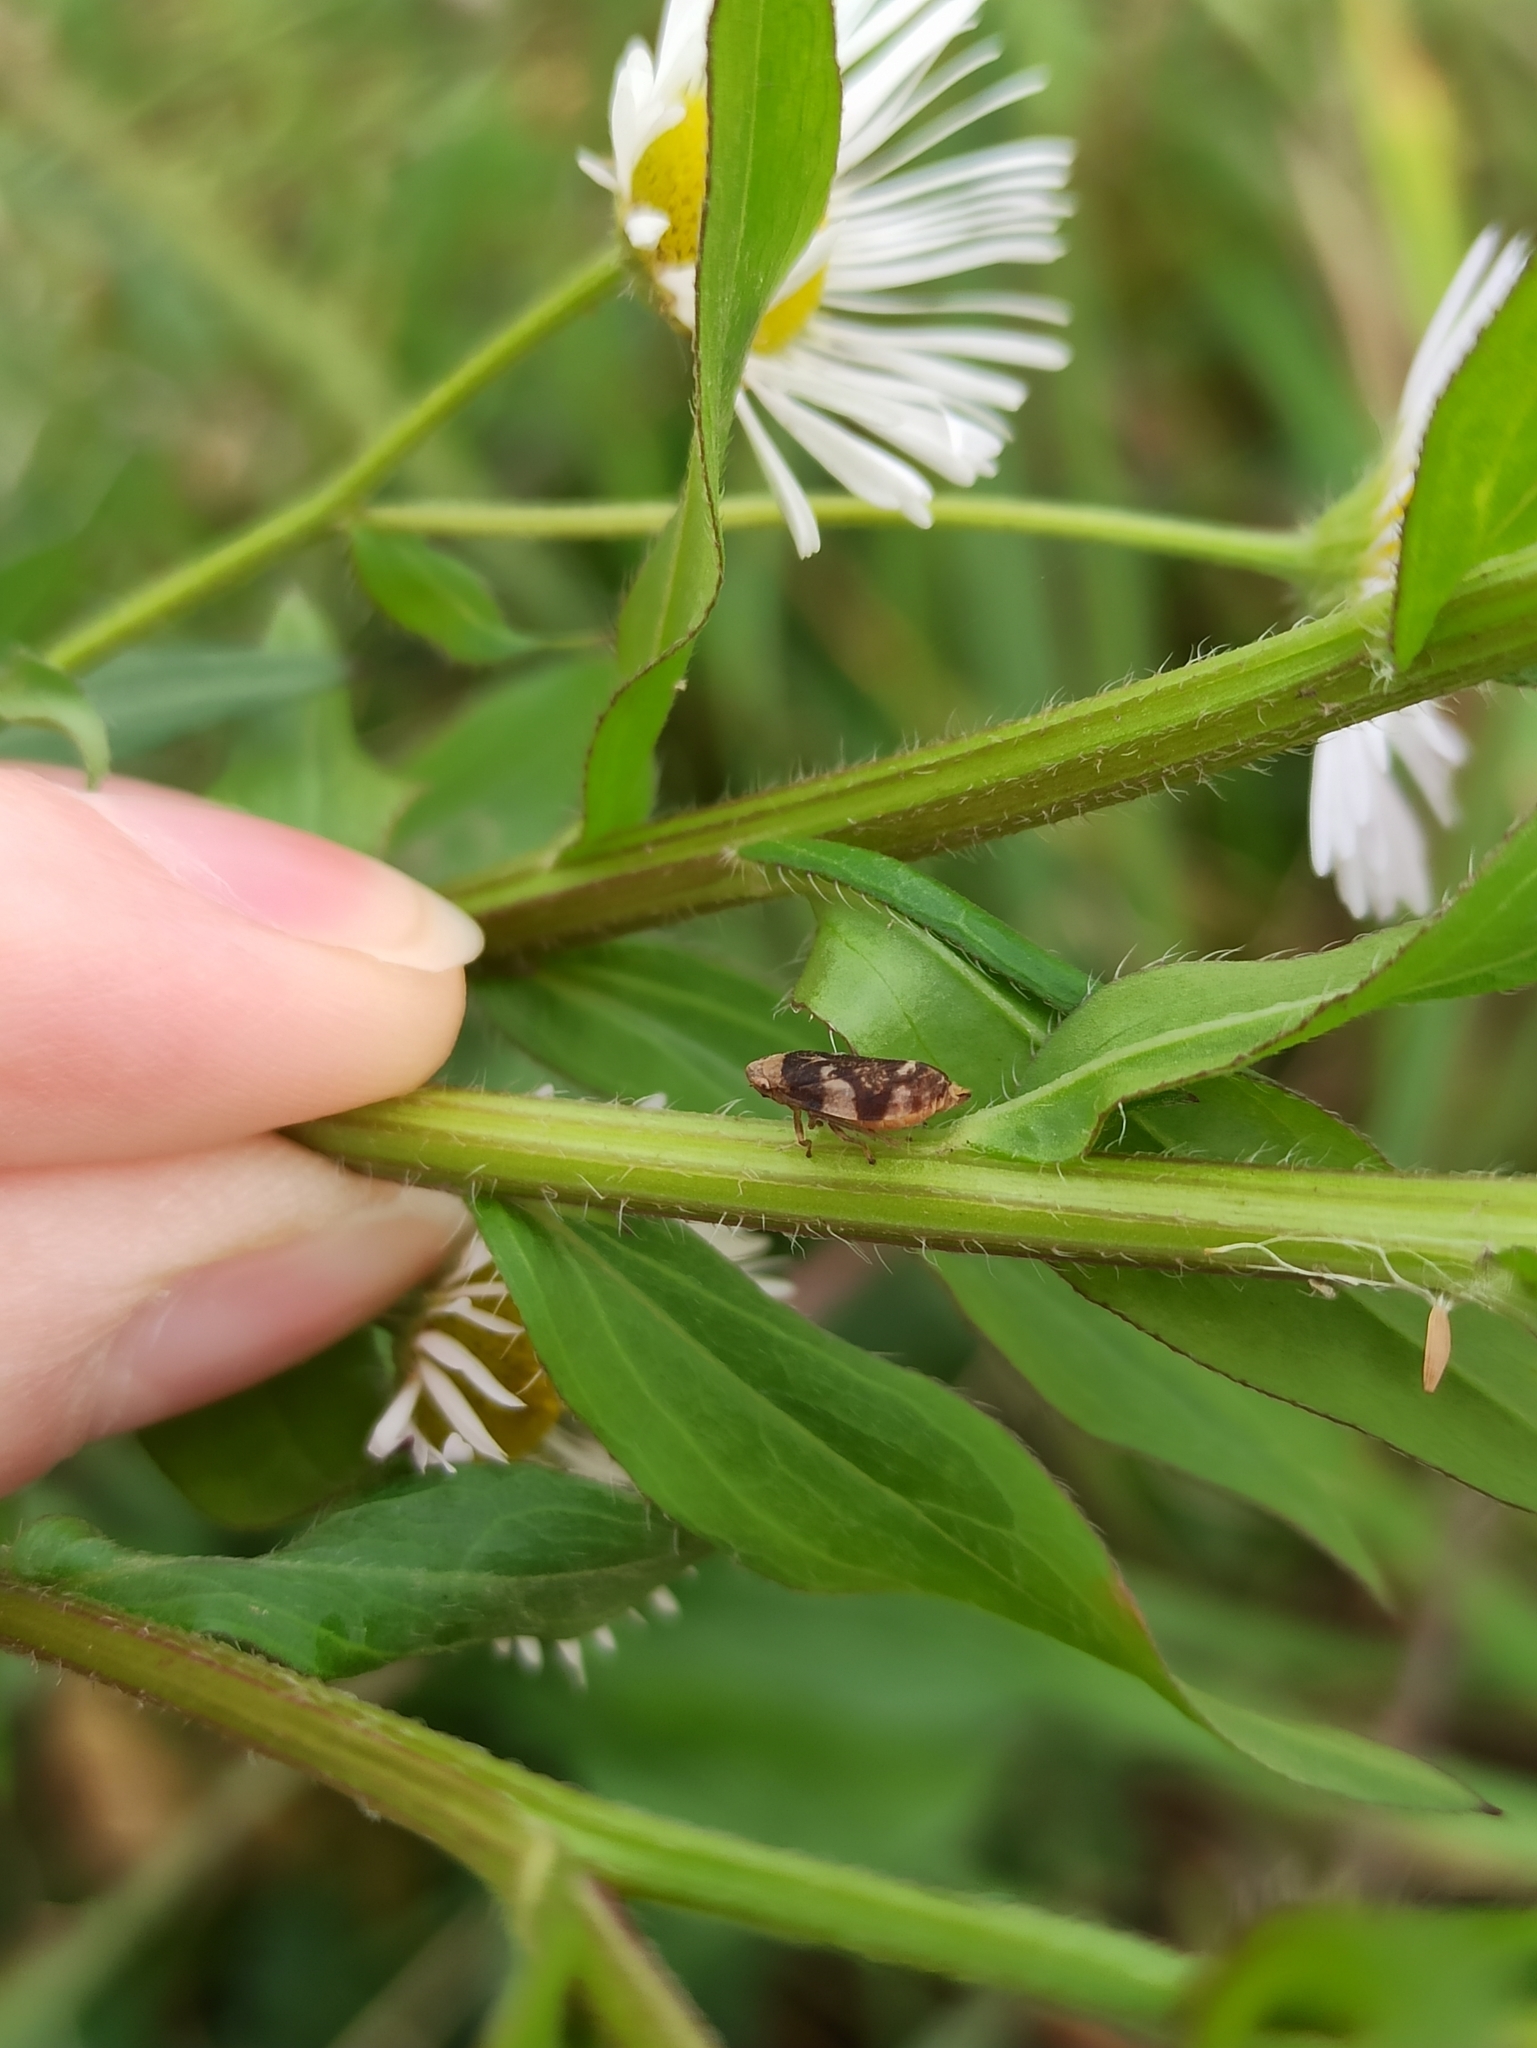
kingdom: Animalia
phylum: Arthropoda
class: Insecta
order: Hemiptera
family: Aphrophoridae
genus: Philaenus
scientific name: Philaenus spumarius
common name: Meadow spittlebug
